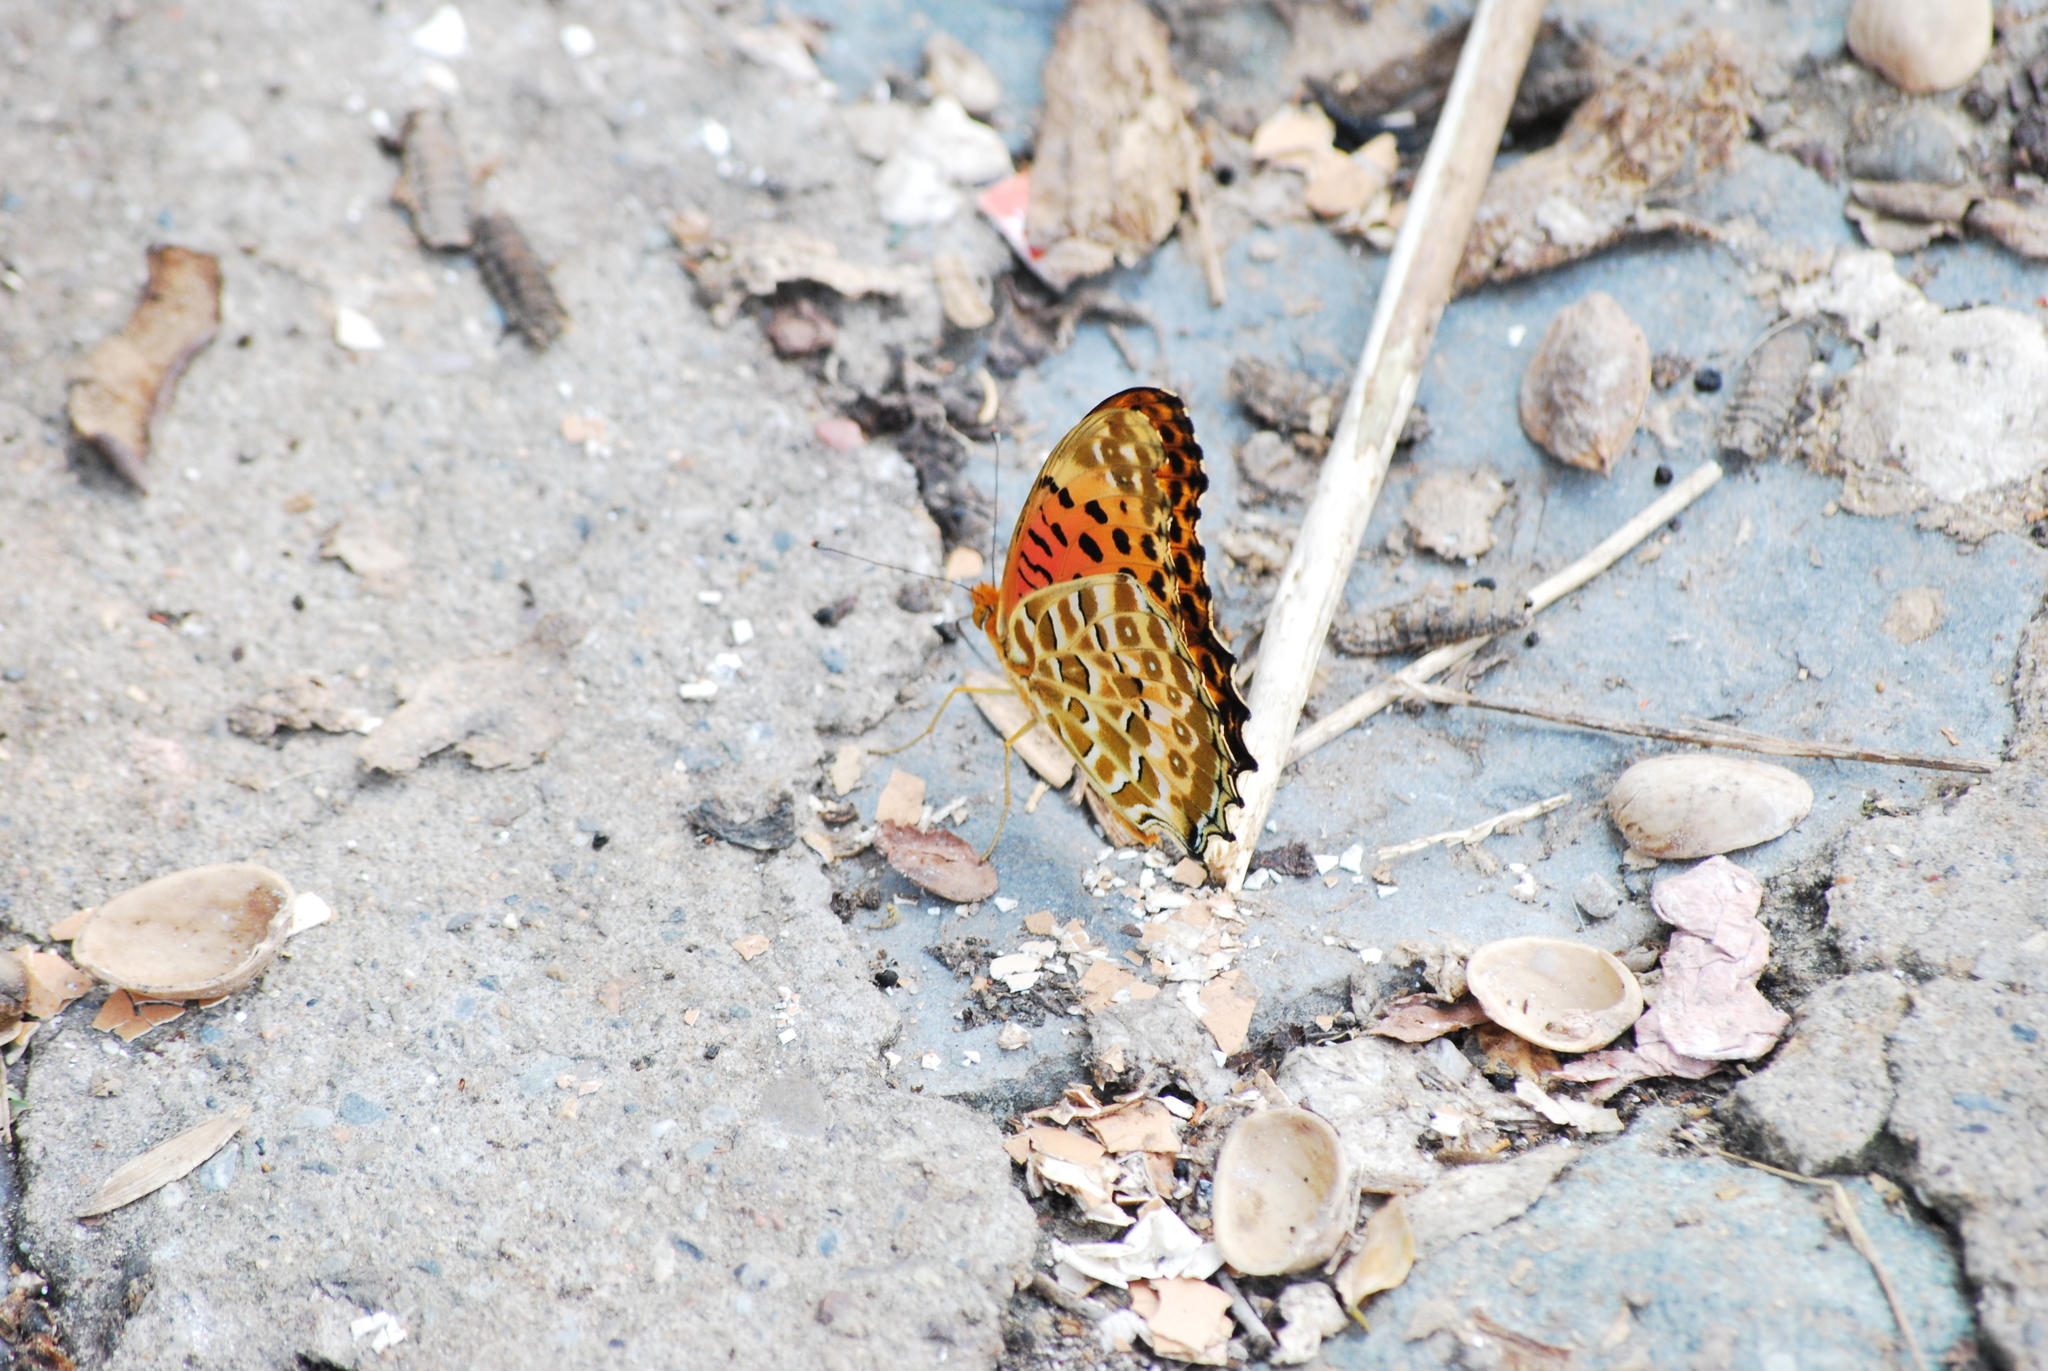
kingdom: Animalia
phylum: Arthropoda
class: Insecta
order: Lepidoptera
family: Nymphalidae
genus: Argynnis
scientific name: Argynnis hyperbius
